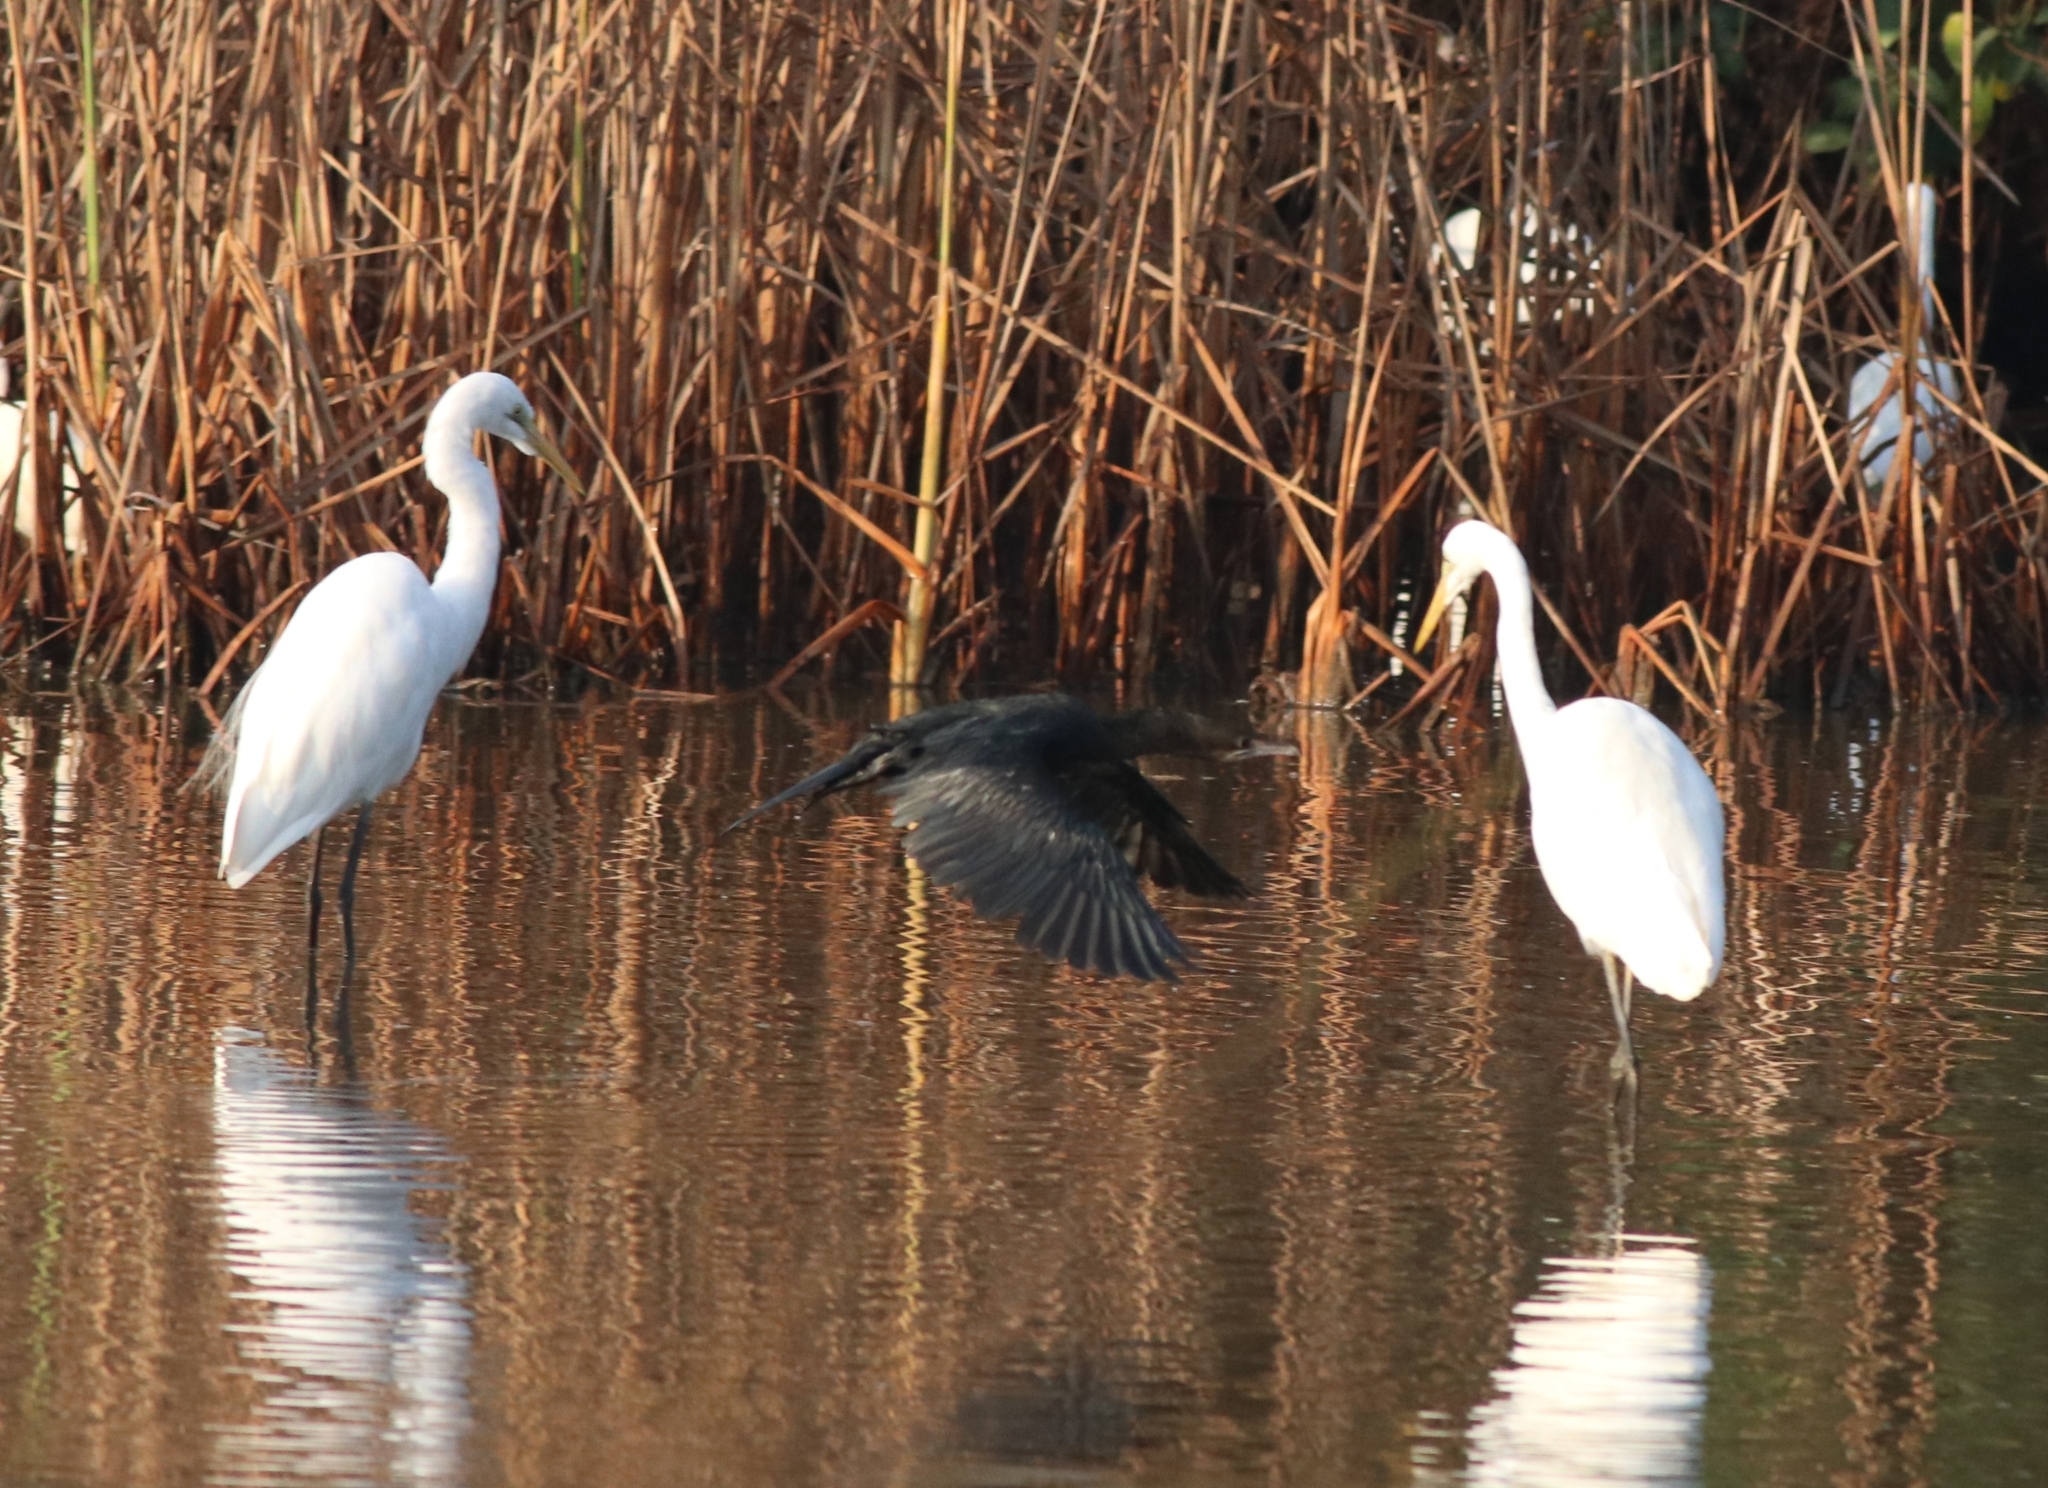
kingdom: Animalia
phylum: Chordata
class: Aves
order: Pelecaniformes
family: Ardeidae
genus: Ardea
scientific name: Ardea alba
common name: Great egret
